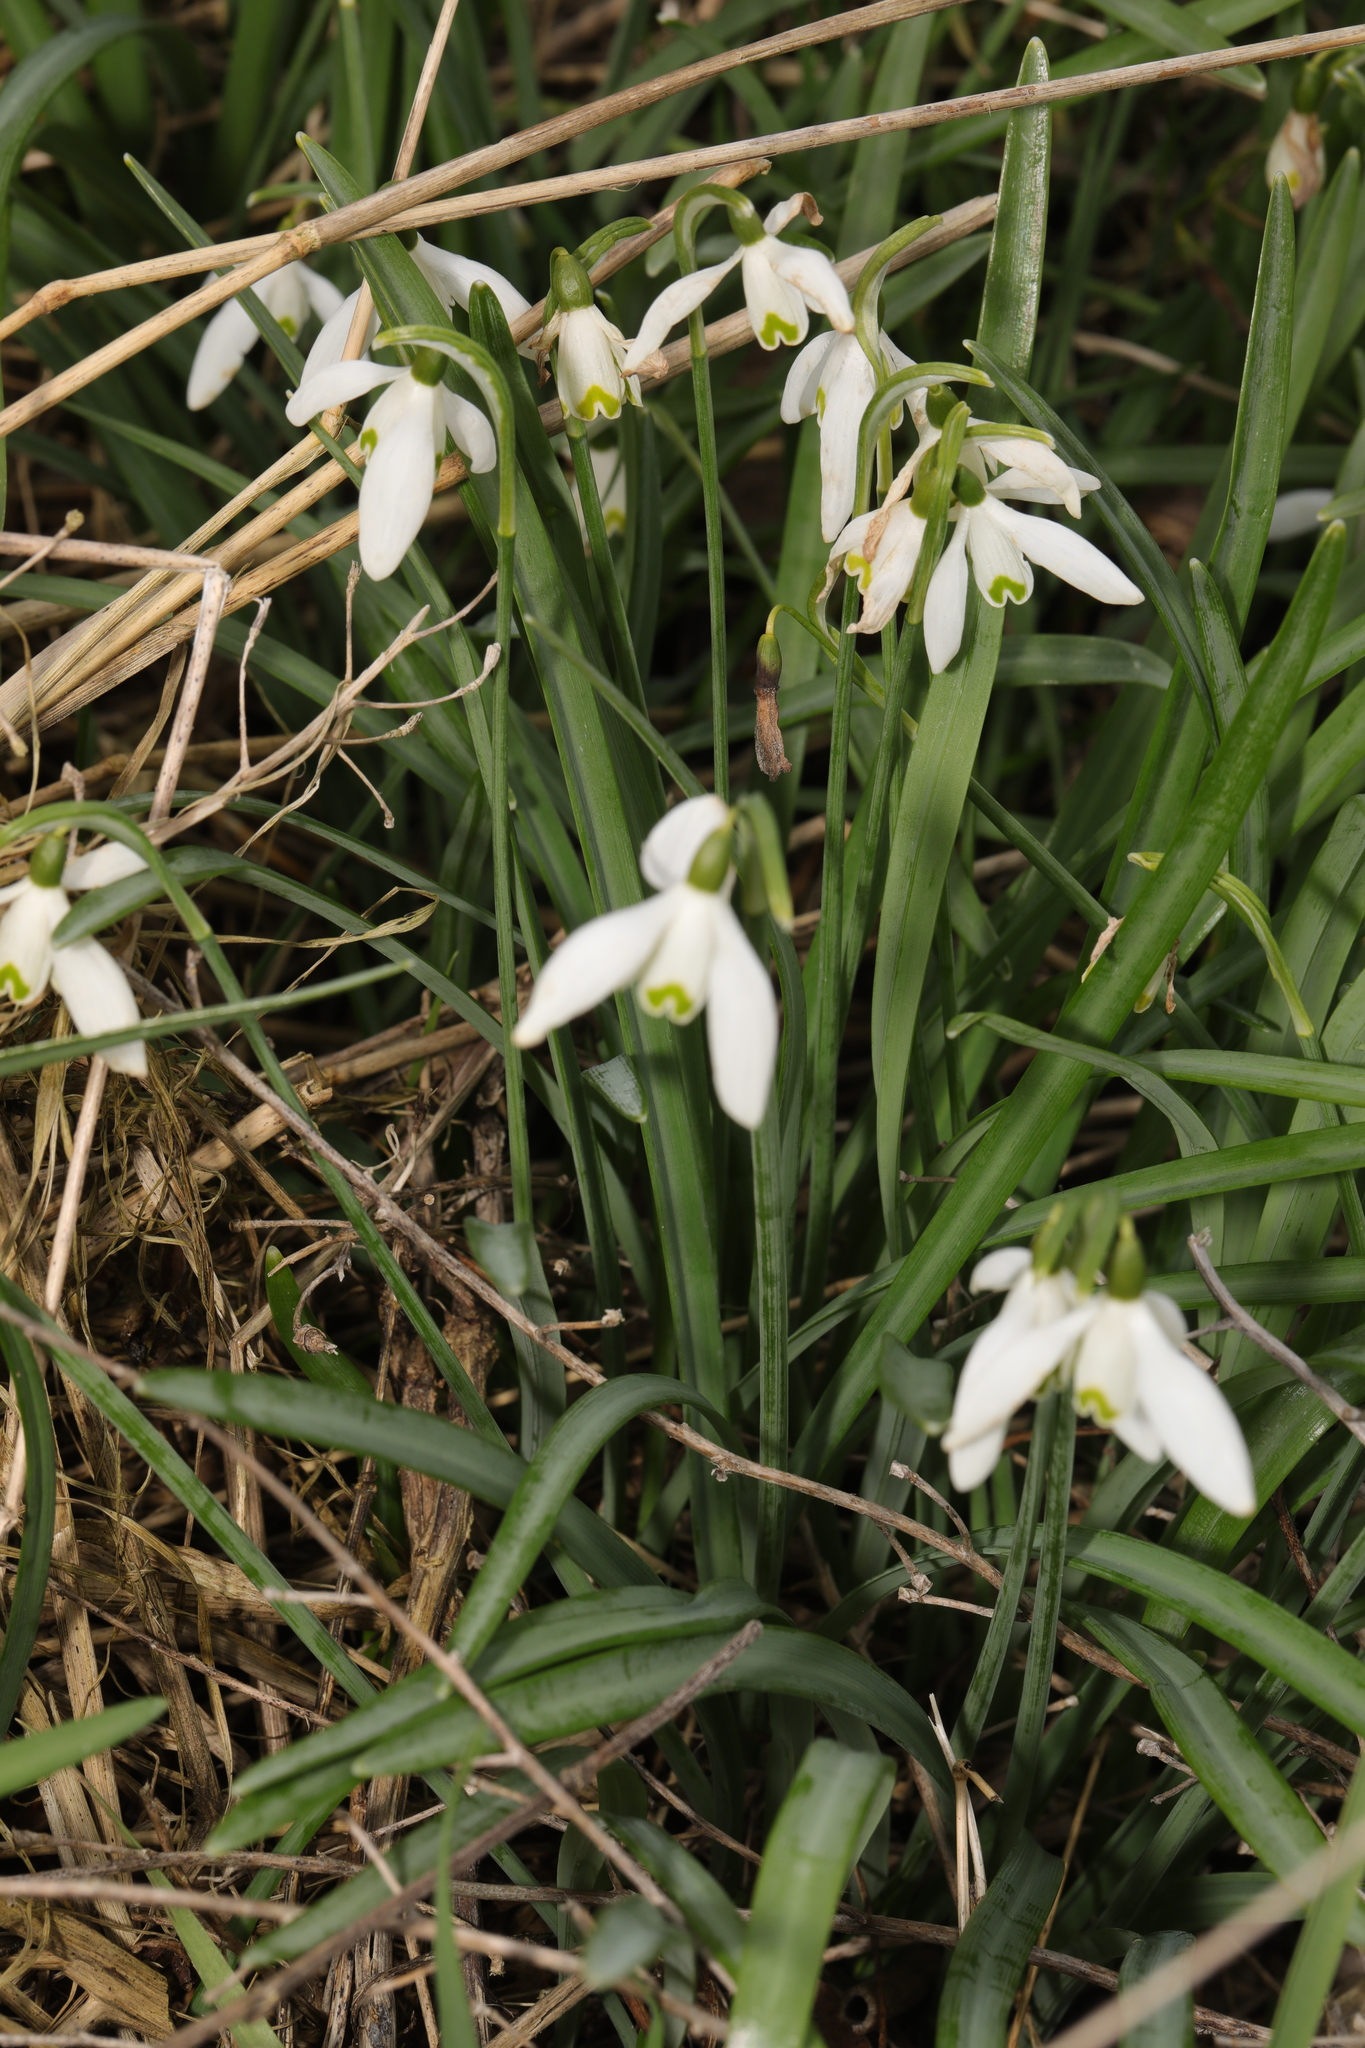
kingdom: Plantae
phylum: Tracheophyta
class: Liliopsida
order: Asparagales
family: Amaryllidaceae
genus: Galanthus
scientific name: Galanthus nivalis
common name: Snowdrop
